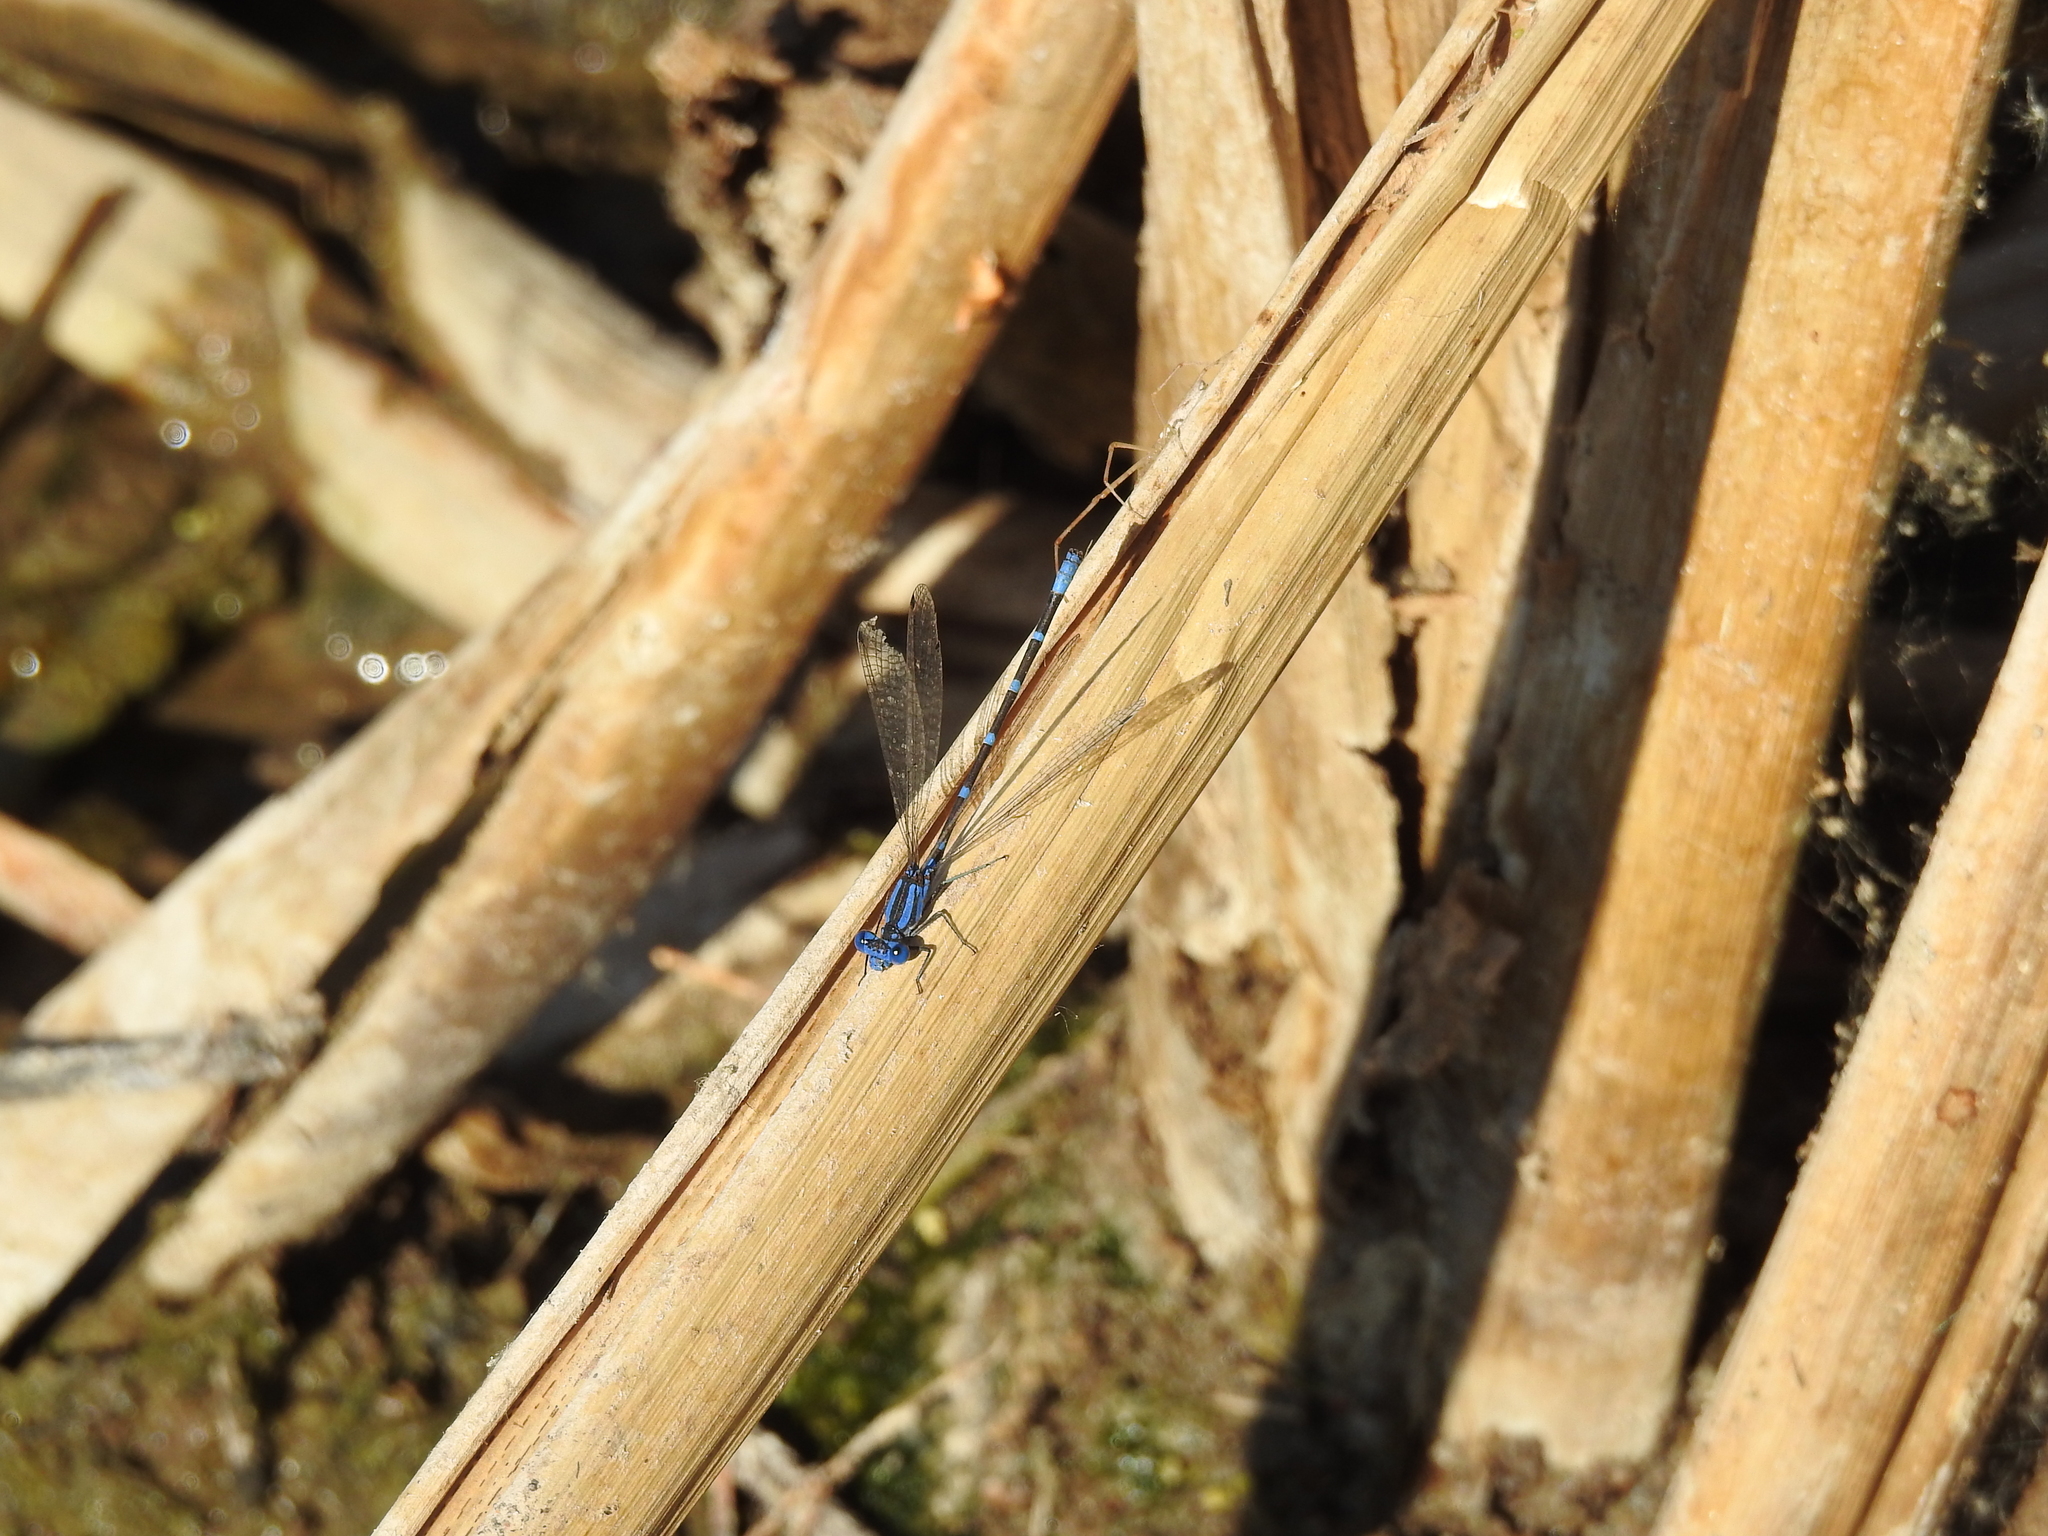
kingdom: Animalia
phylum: Arthropoda
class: Insecta
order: Odonata
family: Coenagrionidae
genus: Argia
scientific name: Argia sedula
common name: Blue-ringed dancer
